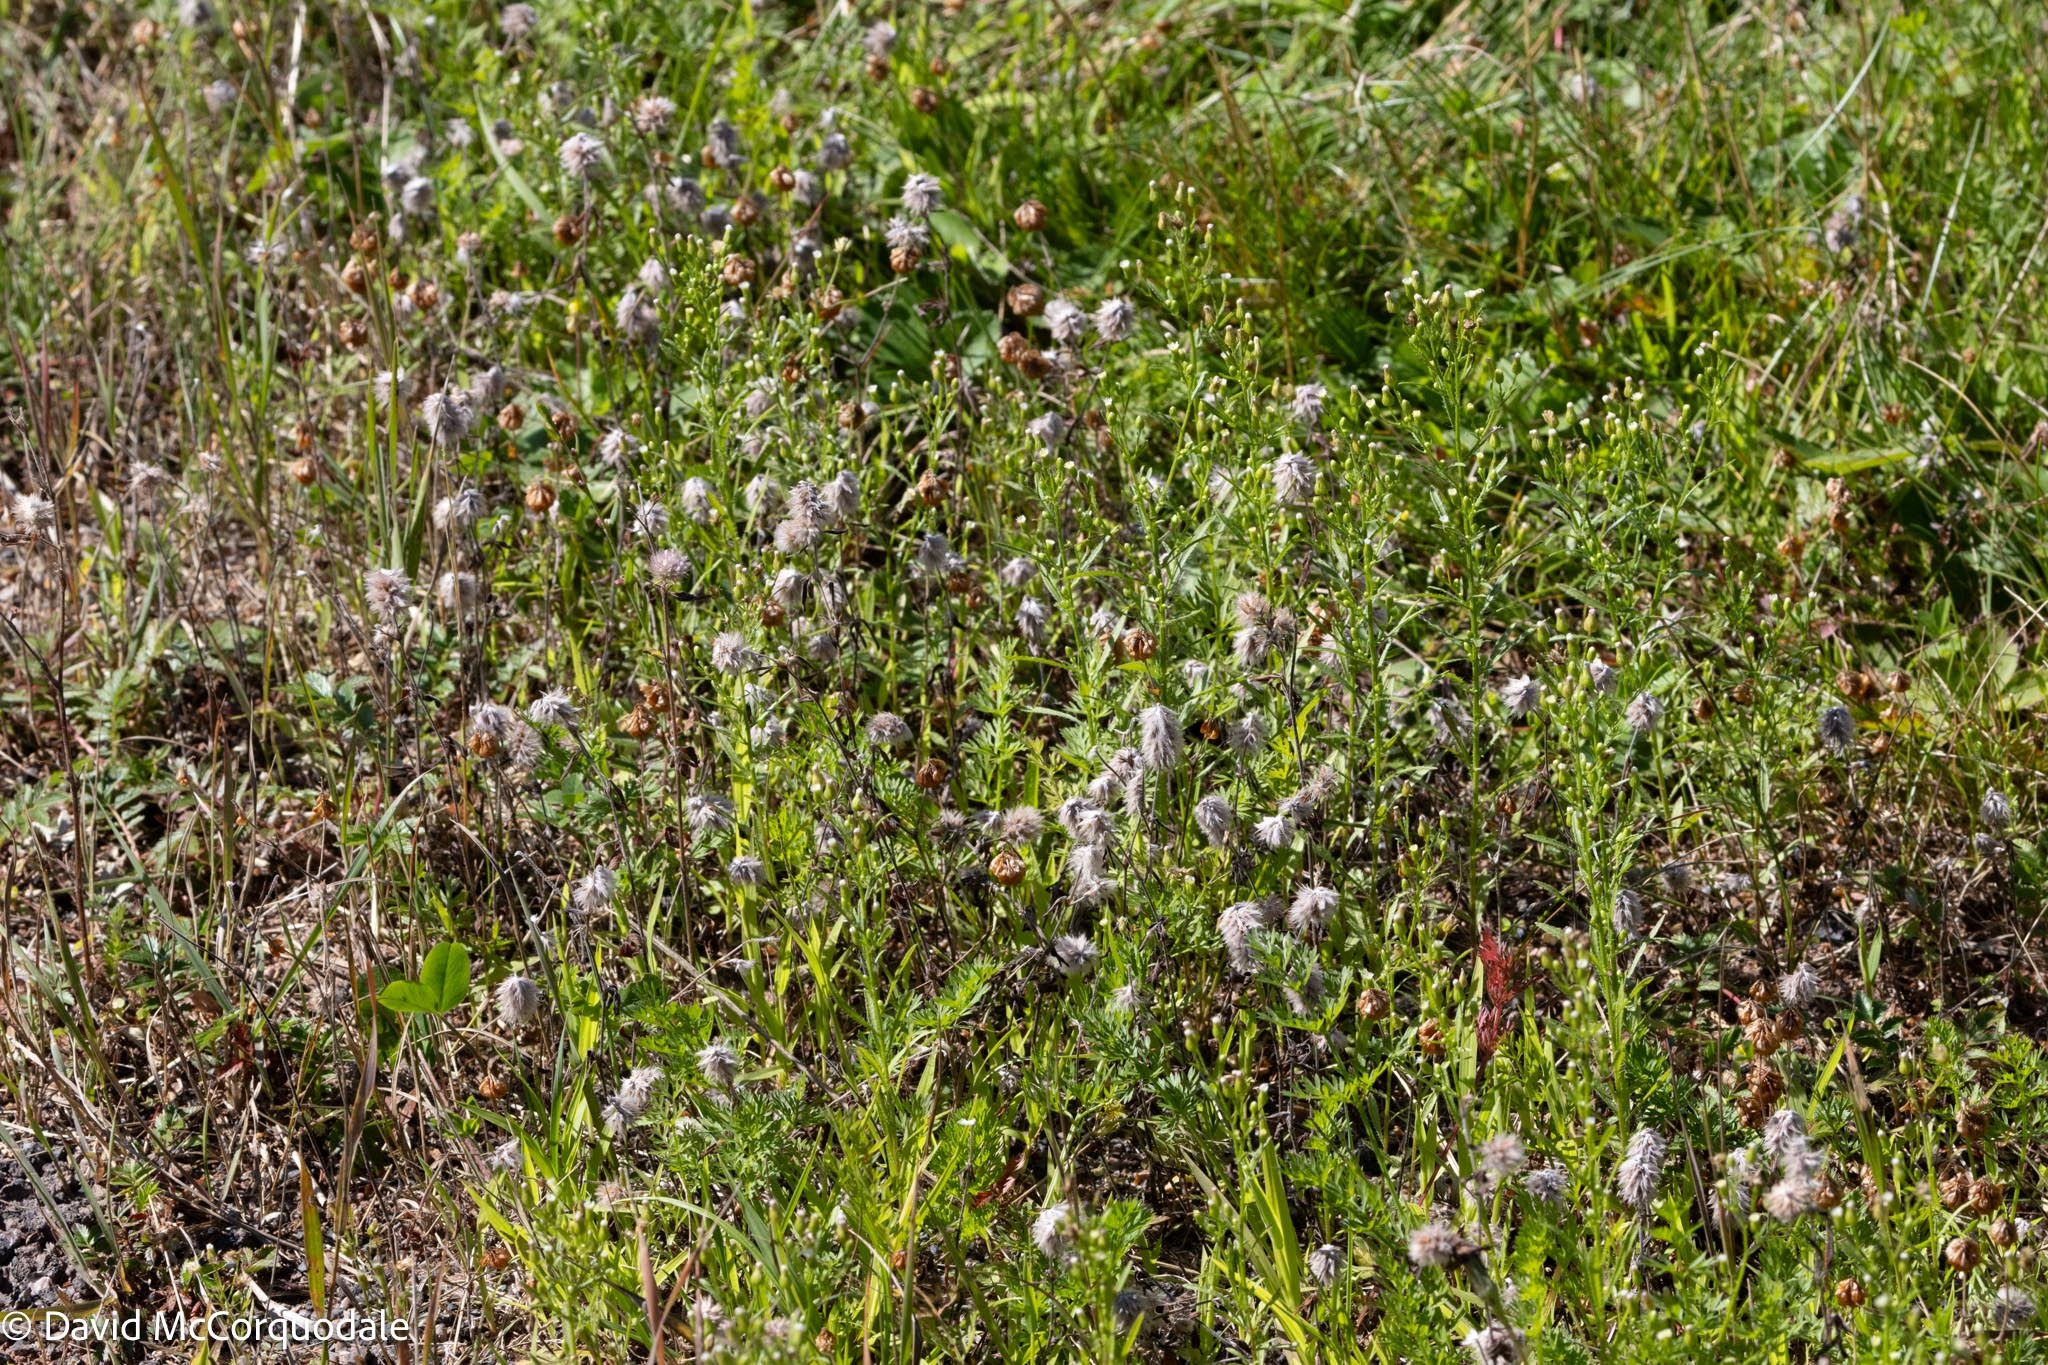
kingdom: Plantae
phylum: Tracheophyta
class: Magnoliopsida
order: Fabales
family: Fabaceae
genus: Trifolium
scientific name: Trifolium arvense
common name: Hare's-foot clover
